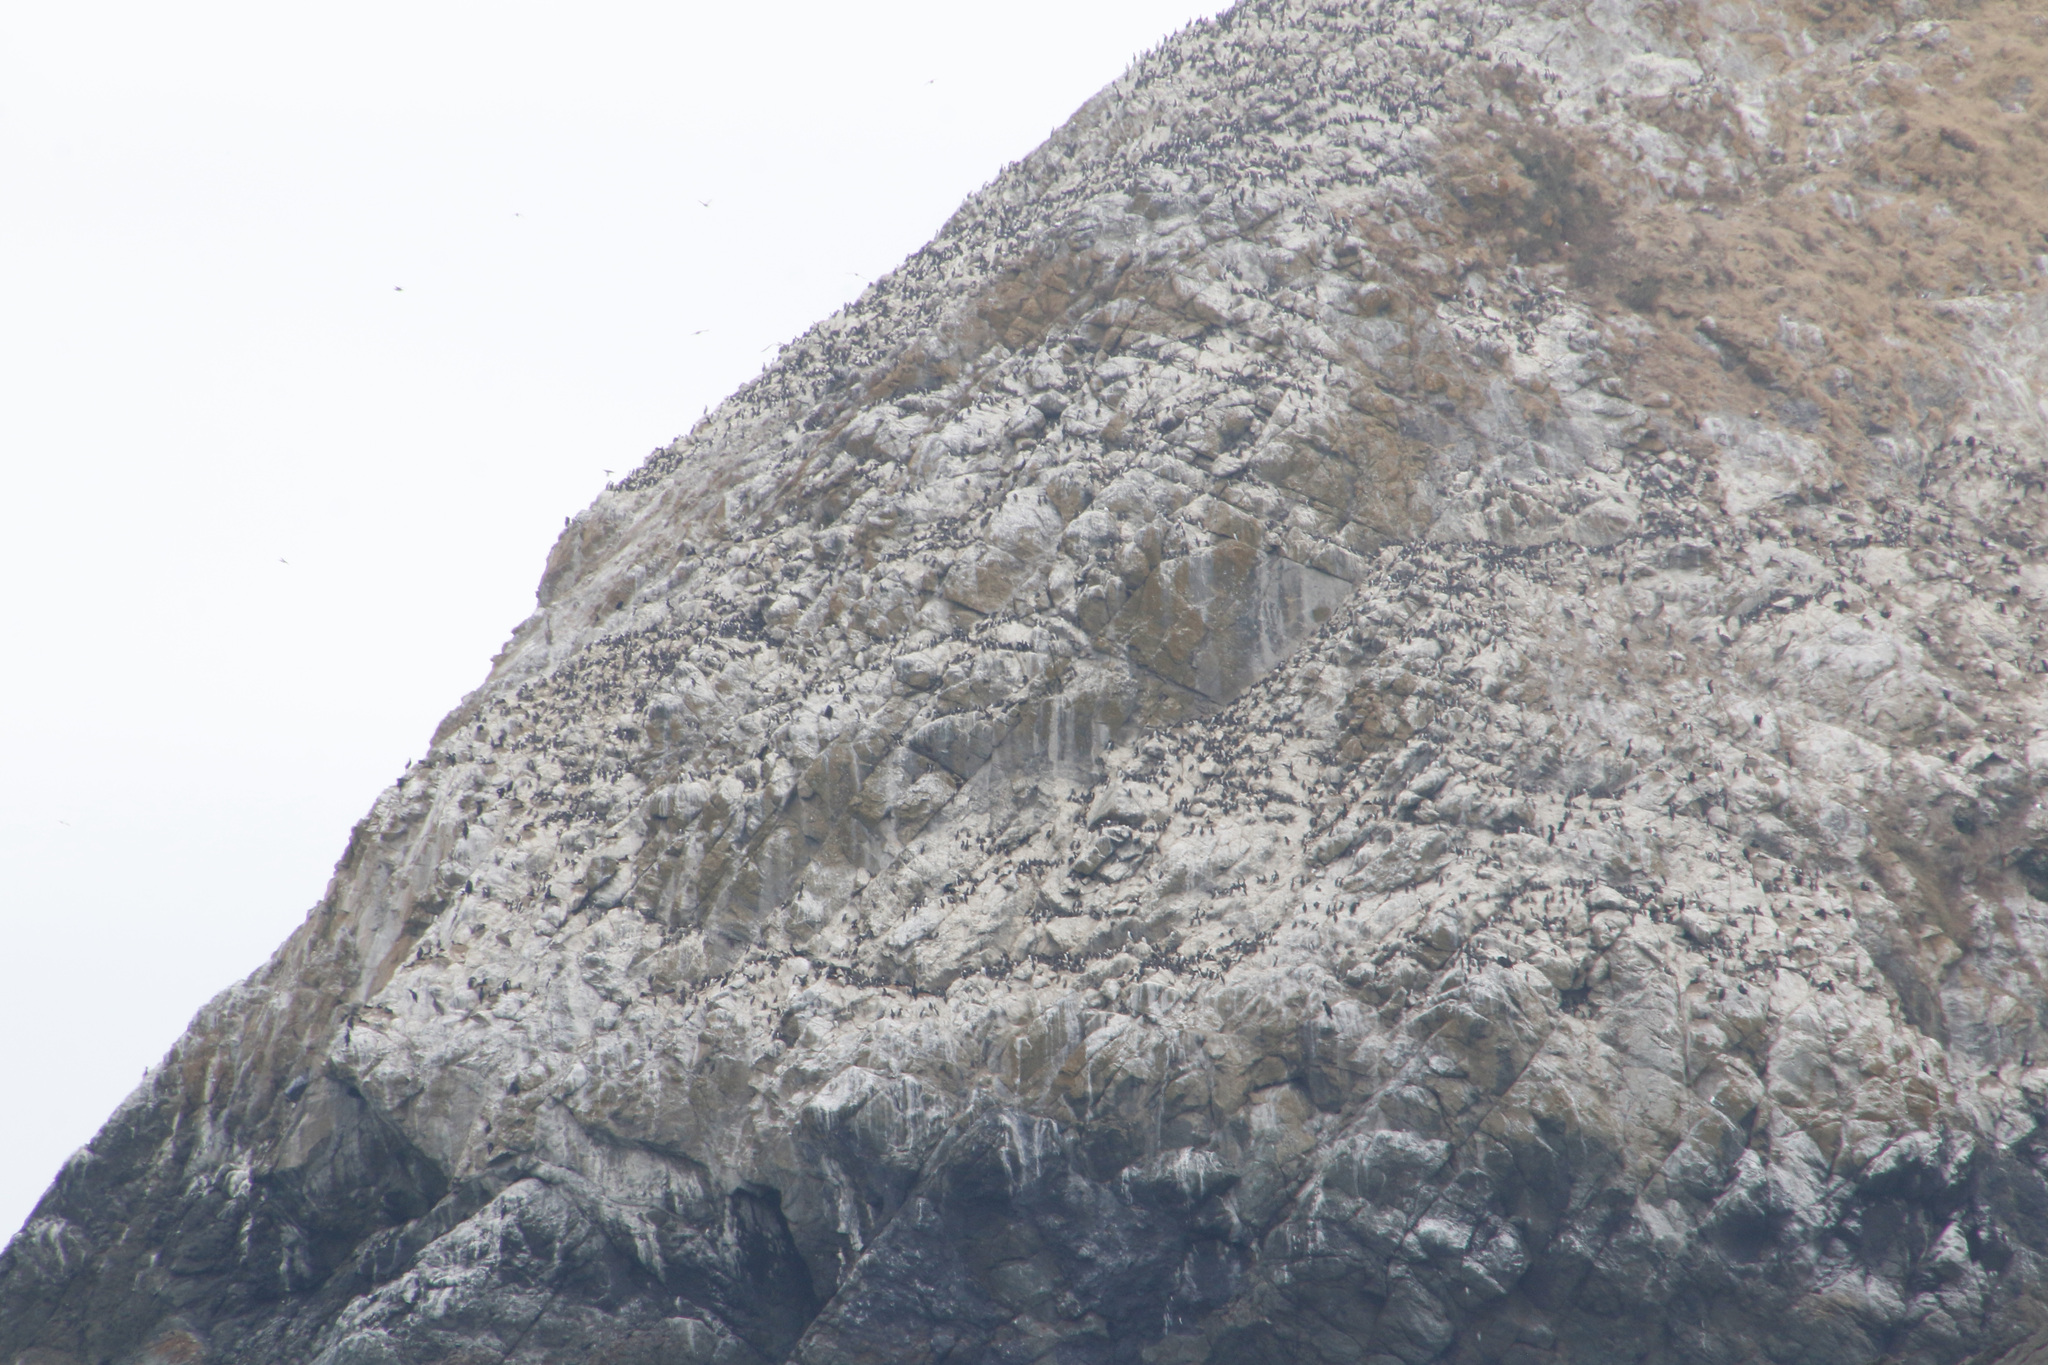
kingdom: Animalia
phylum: Chordata
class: Aves
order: Charadriiformes
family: Alcidae
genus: Uria
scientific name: Uria aalge
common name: Common murre
